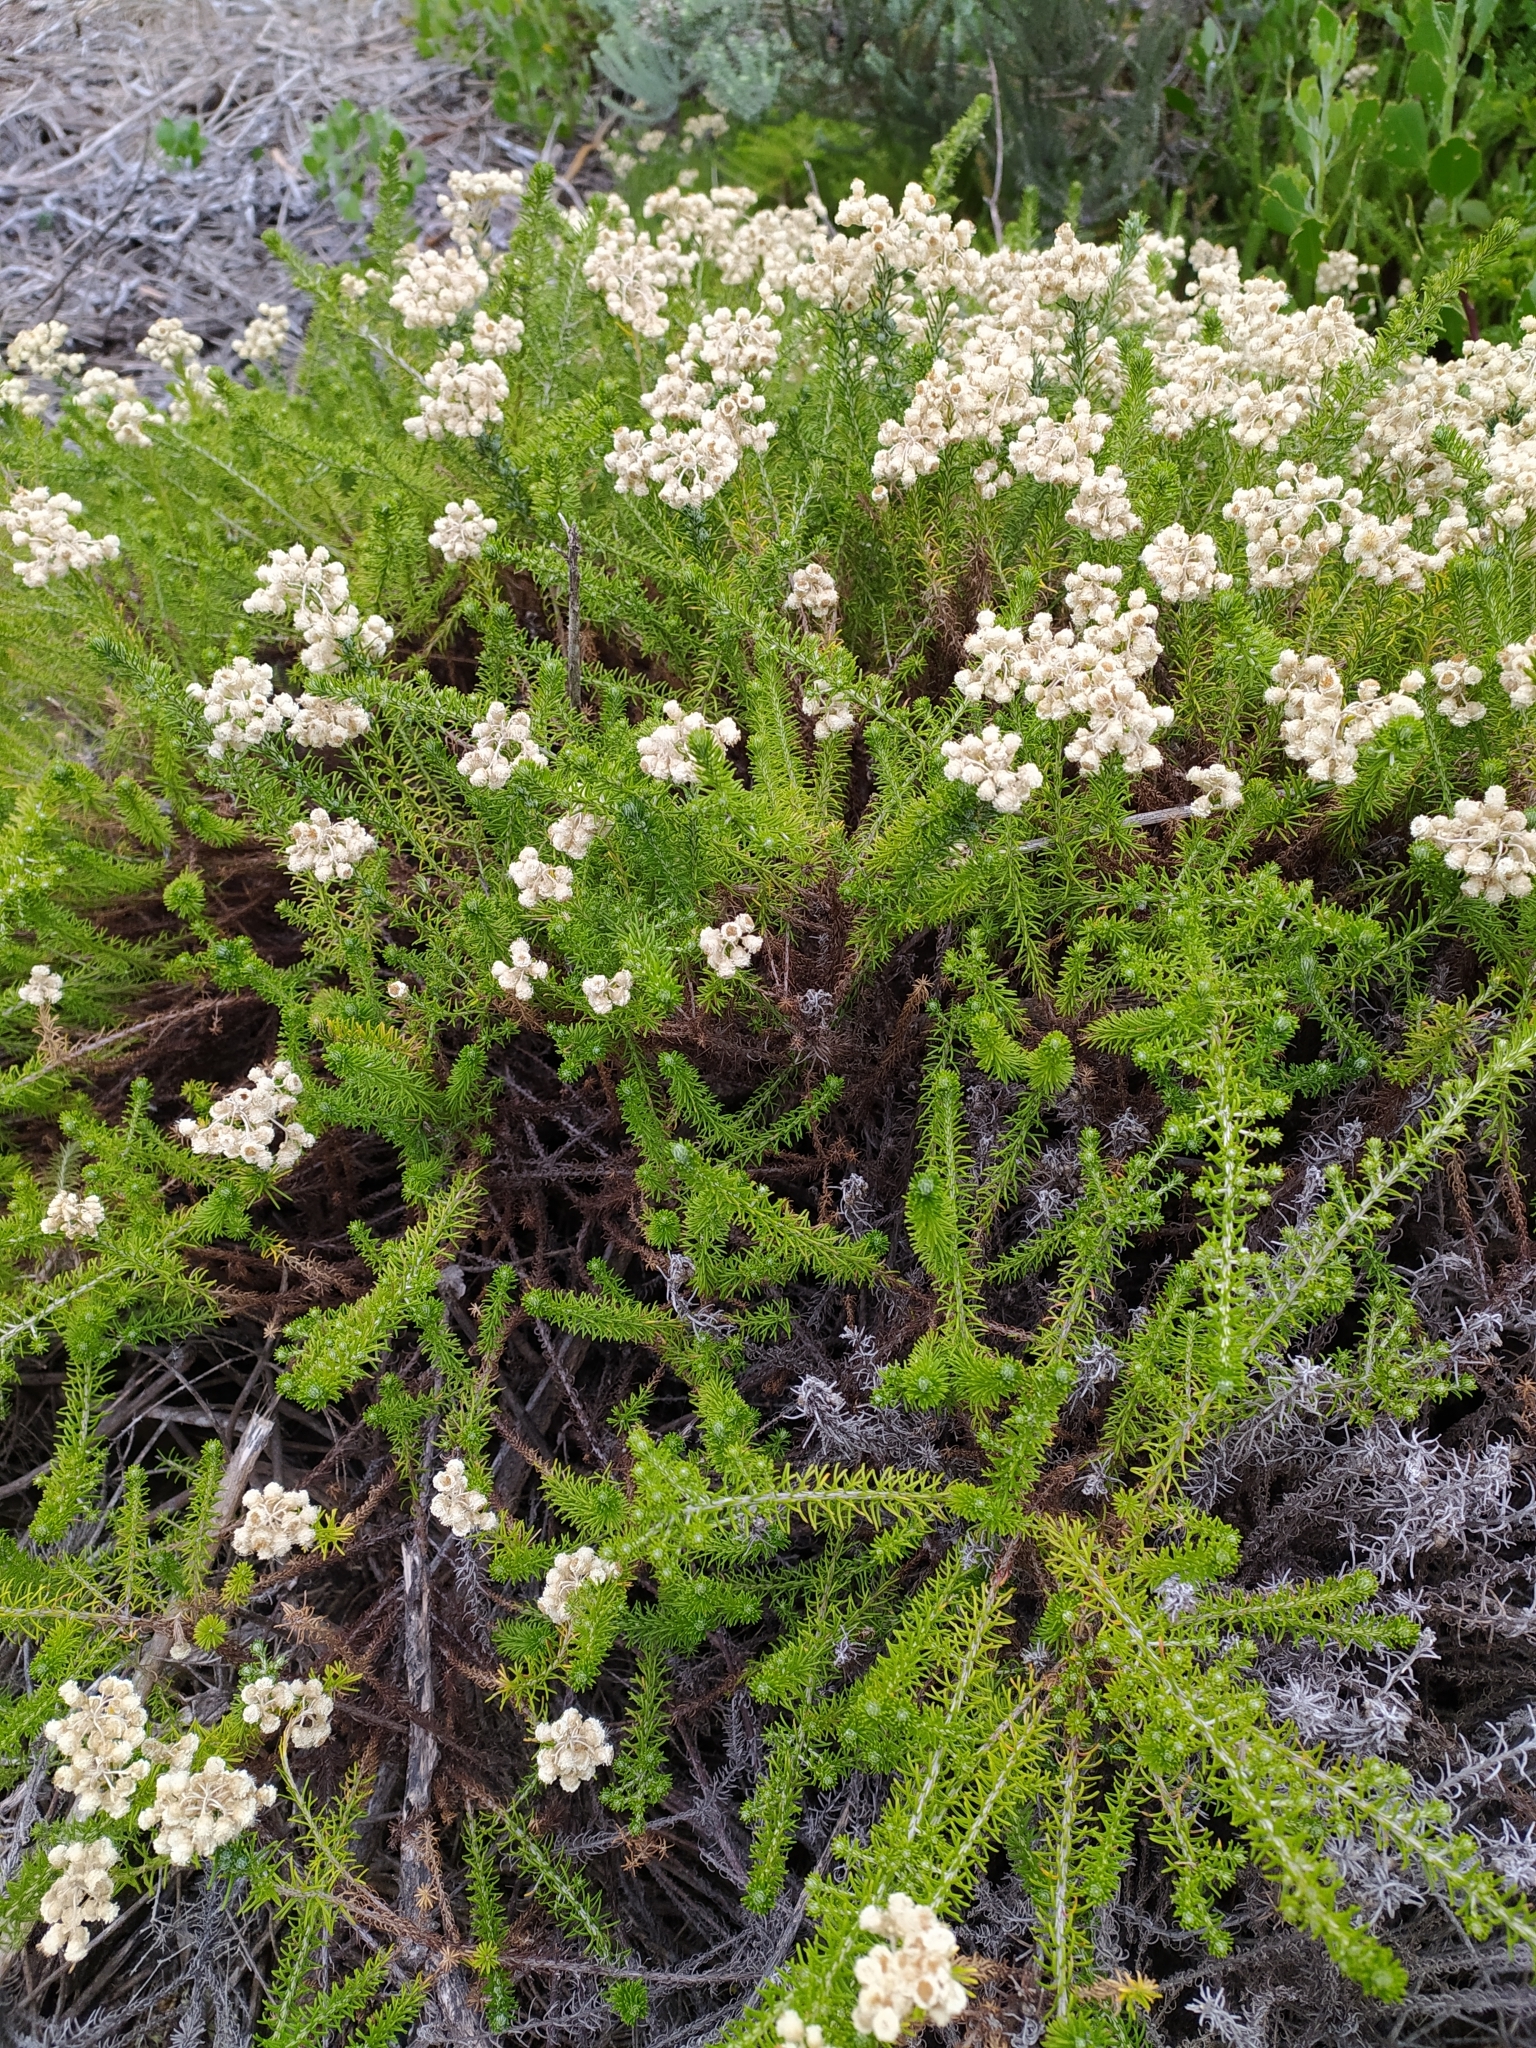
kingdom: Plantae
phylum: Tracheophyta
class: Magnoliopsida
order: Asterales
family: Asteraceae
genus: Helichrysum
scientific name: Helichrysum teretifolium
